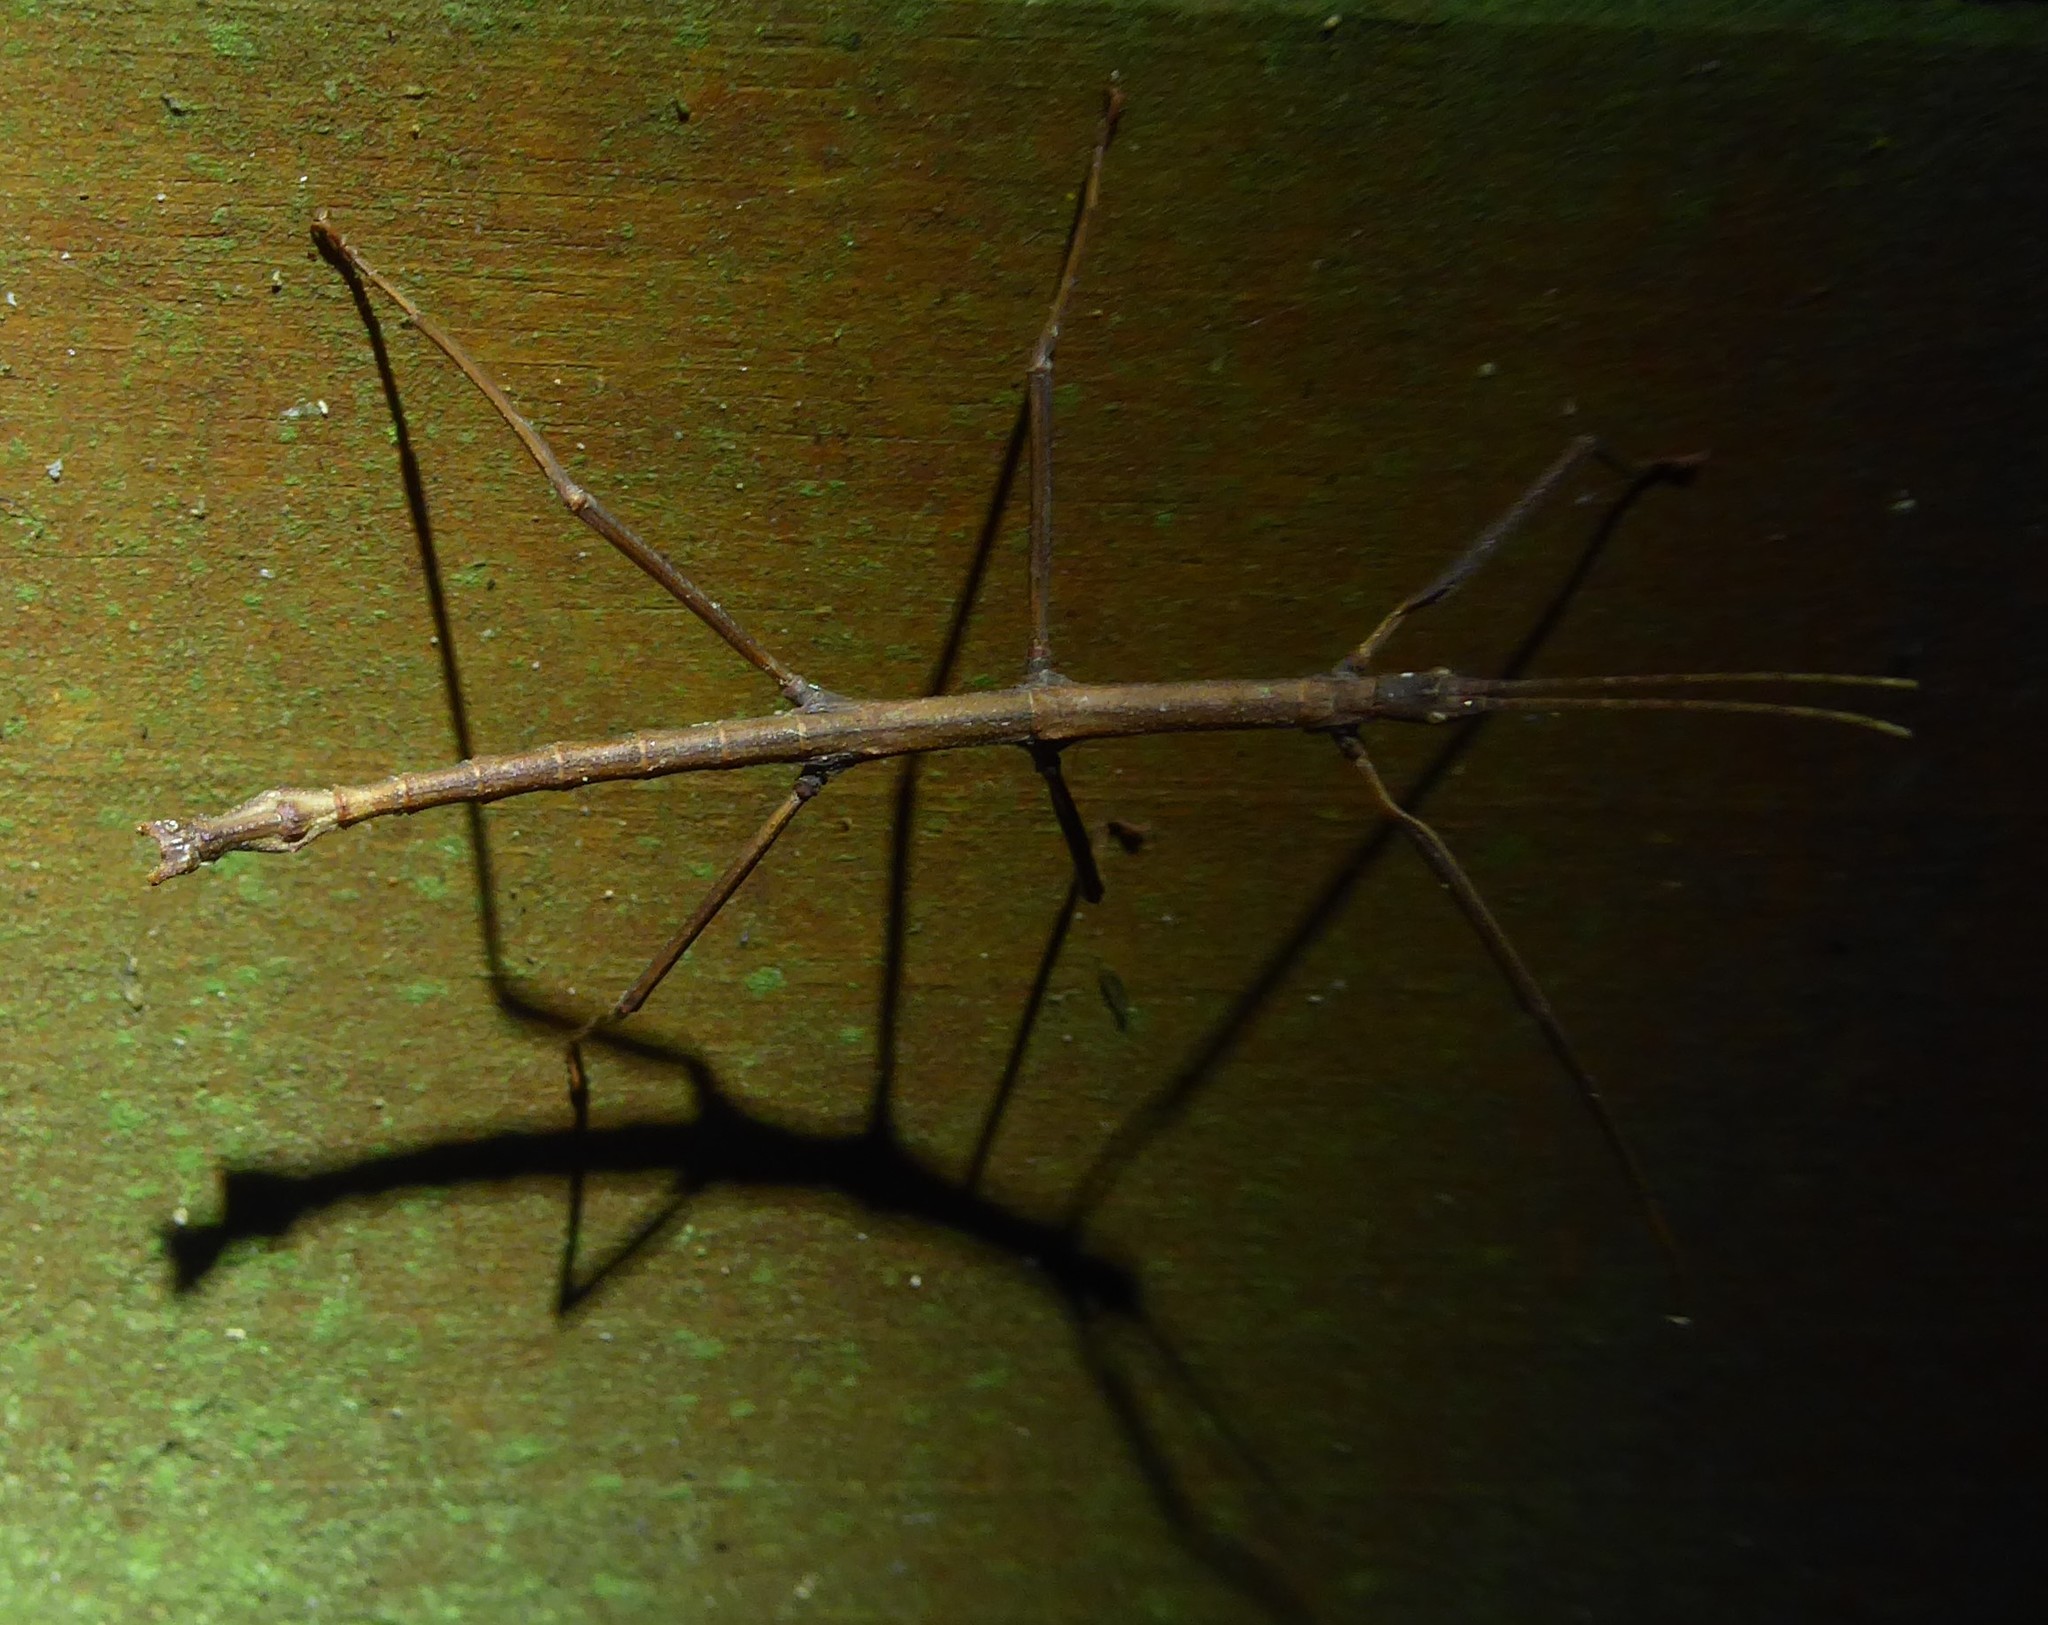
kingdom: Animalia
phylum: Arthropoda
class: Insecta
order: Phasmida
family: Phasmatidae
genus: Niveaphasma
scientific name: Niveaphasma annulatum
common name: Hutton's stick insect
